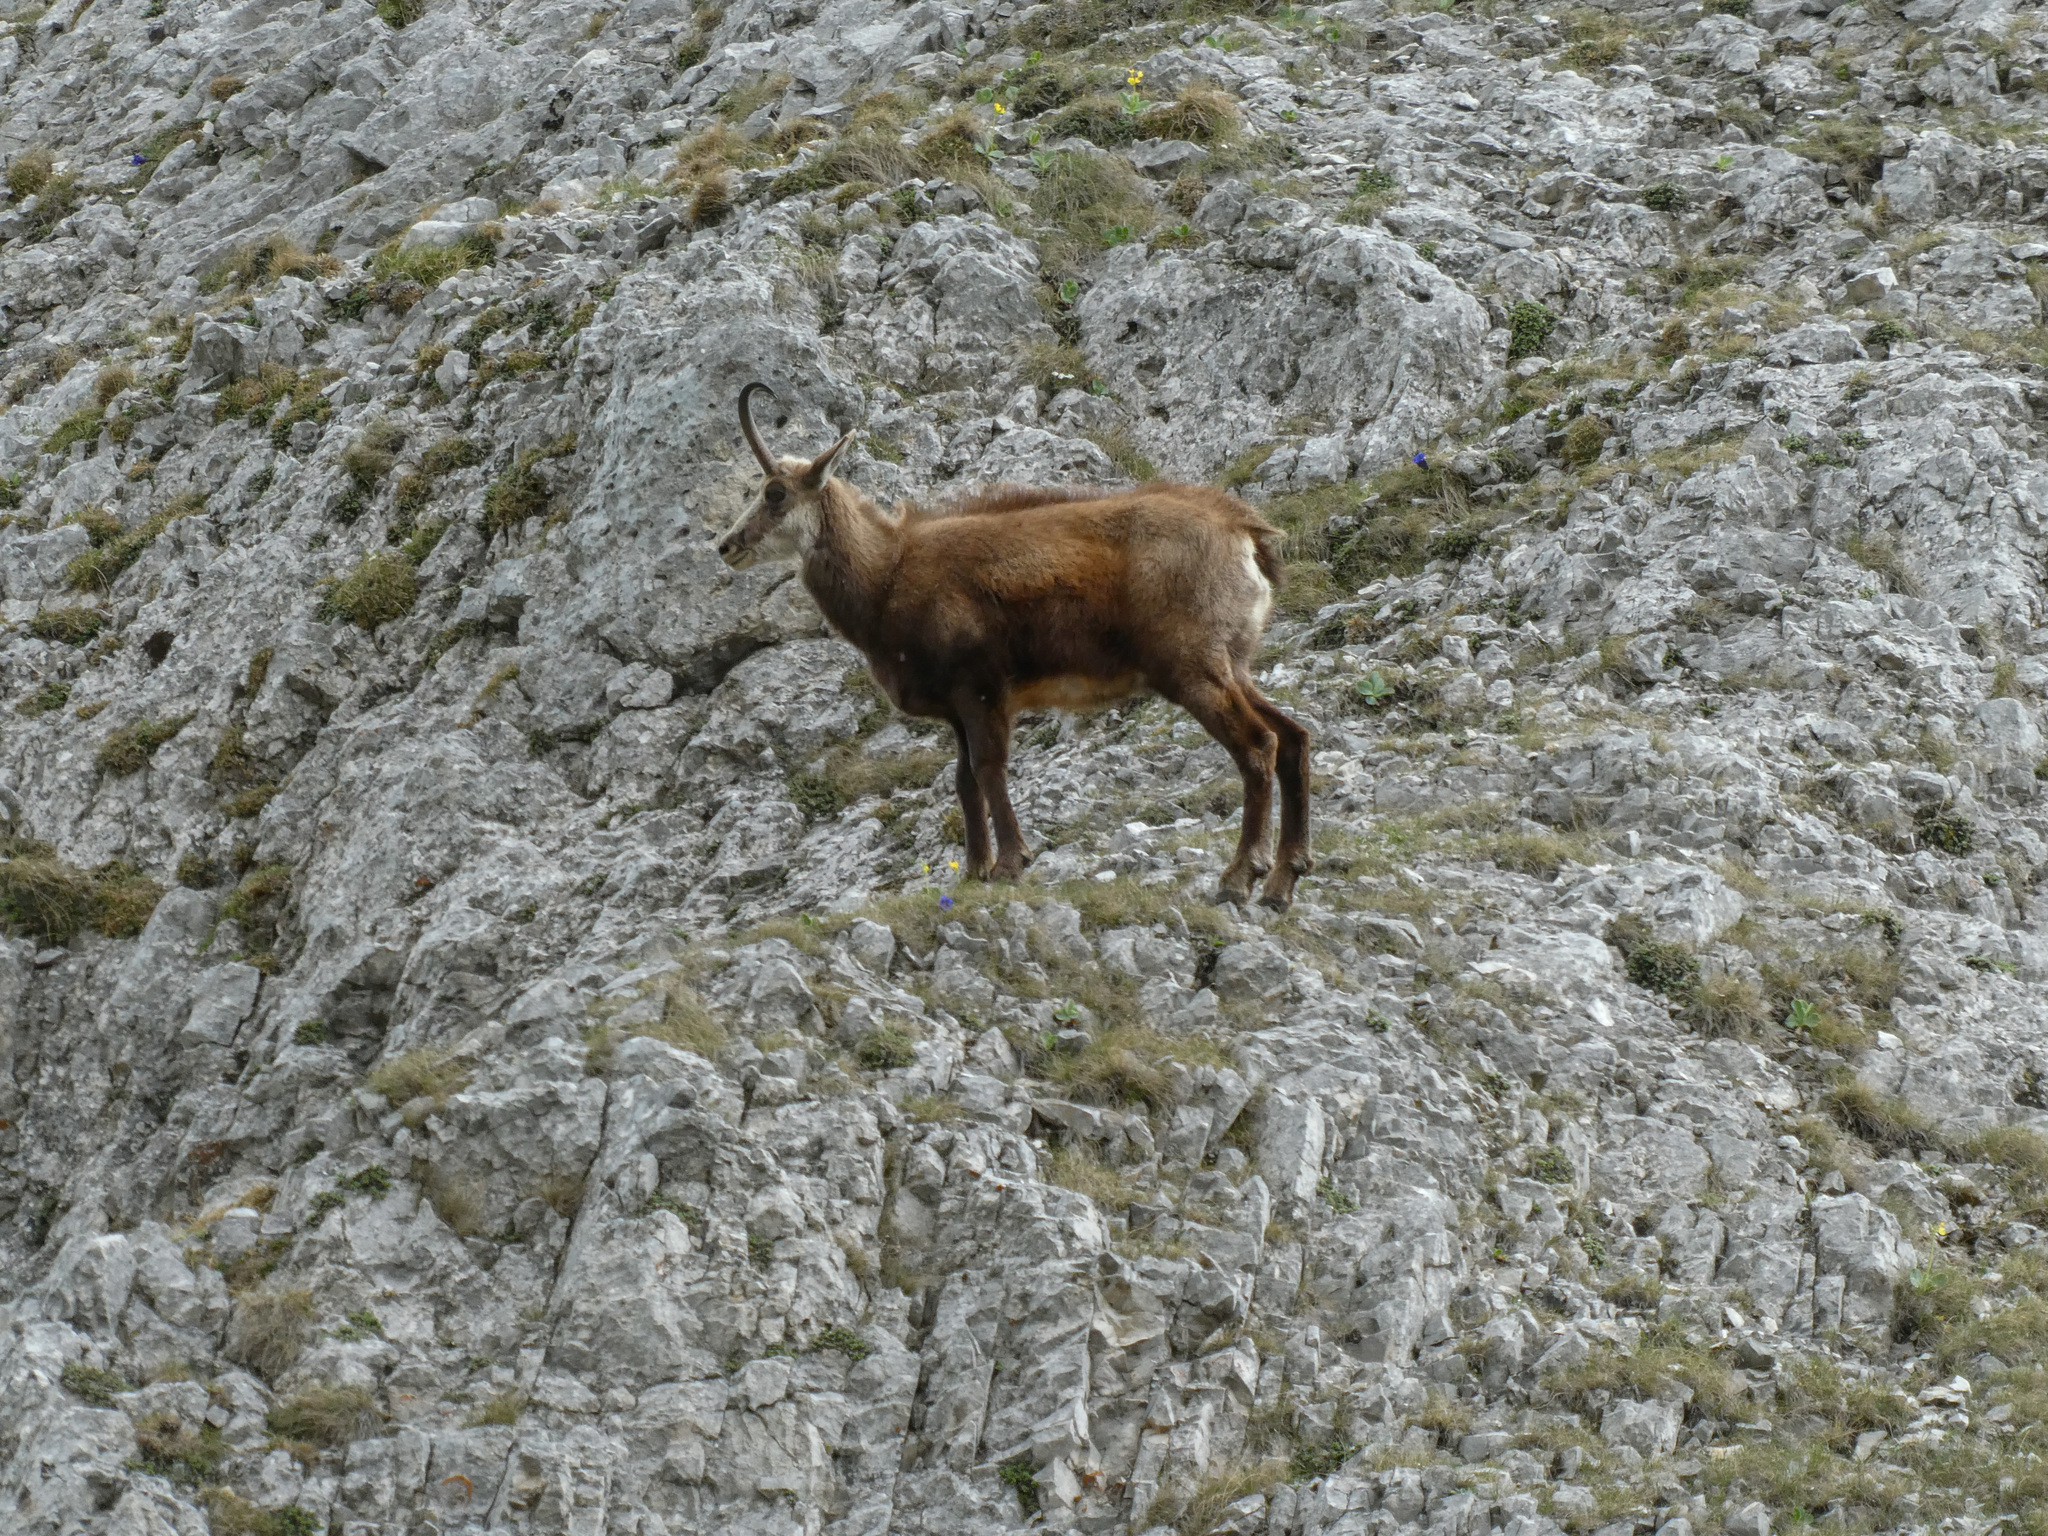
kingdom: Animalia
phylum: Chordata
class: Mammalia
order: Artiodactyla
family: Bovidae
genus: Rupicapra
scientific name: Rupicapra rupicapra
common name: Chamois
